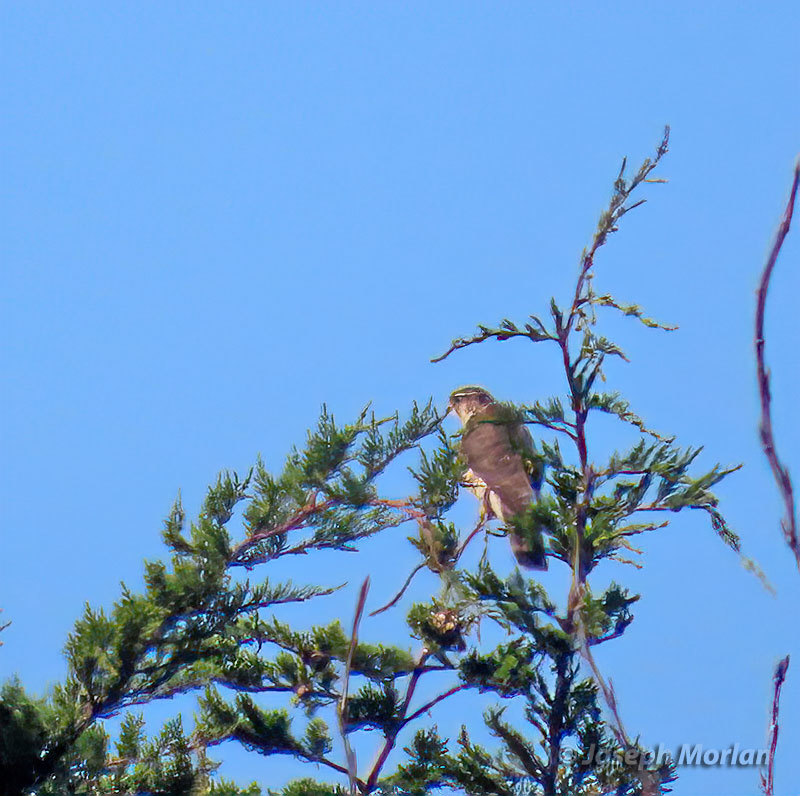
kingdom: Animalia
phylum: Chordata
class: Aves
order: Falconiformes
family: Falconidae
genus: Falco
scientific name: Falco columbarius
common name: Merlin
